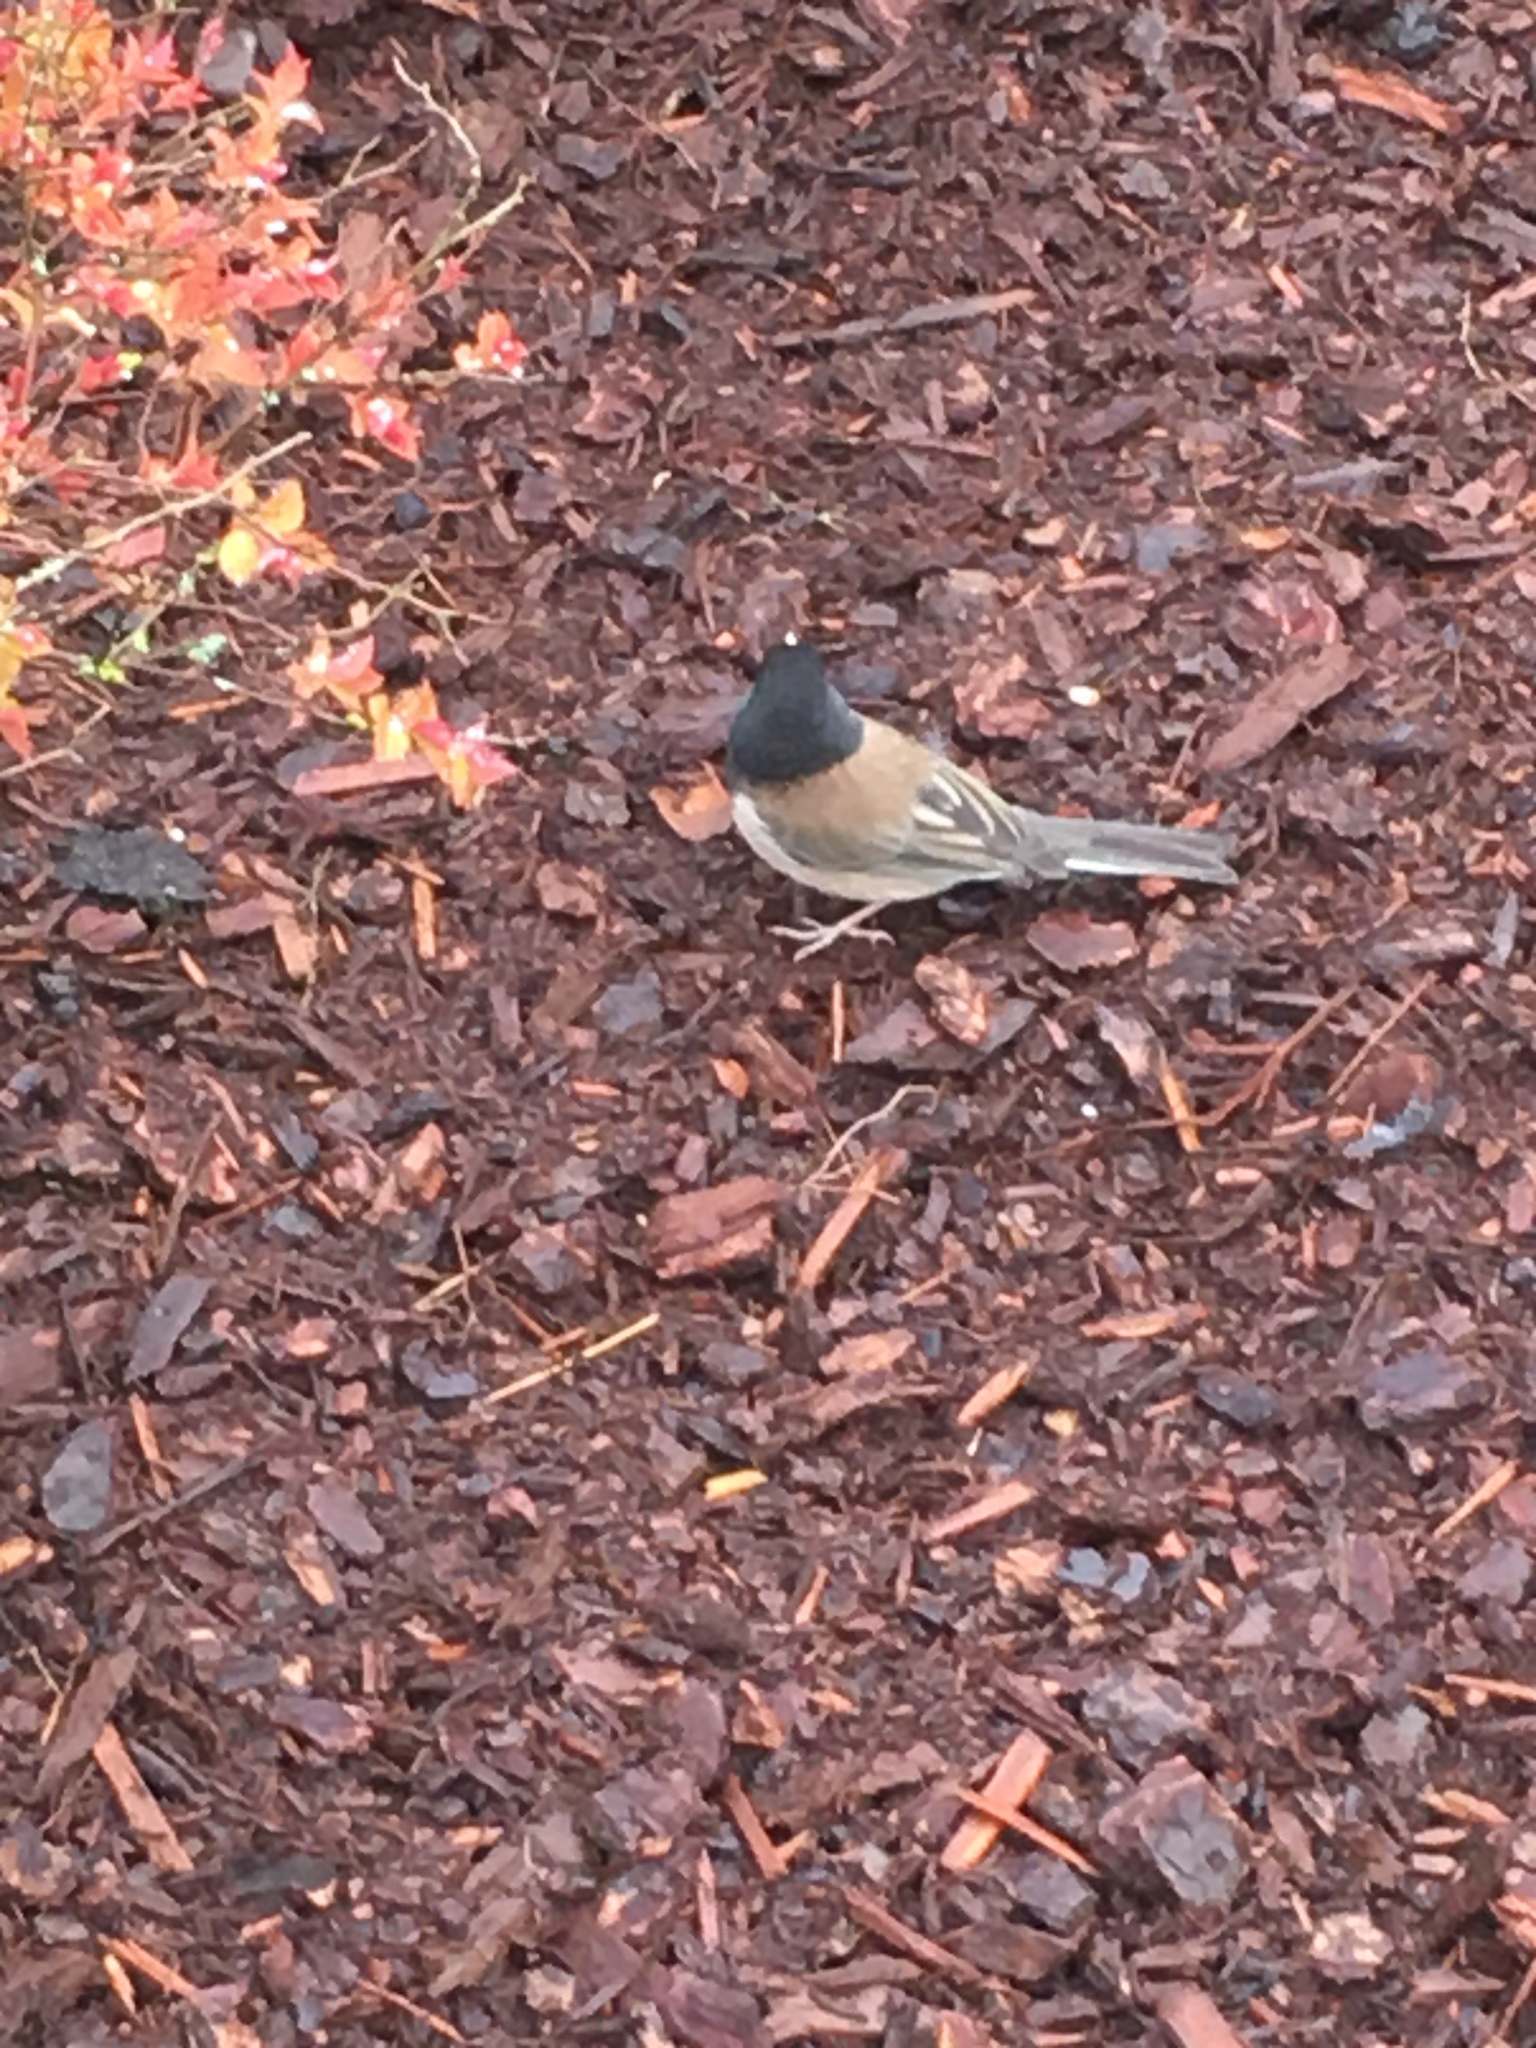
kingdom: Animalia
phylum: Chordata
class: Aves
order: Passeriformes
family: Passerellidae
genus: Junco
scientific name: Junco hyemalis
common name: Dark-eyed junco
